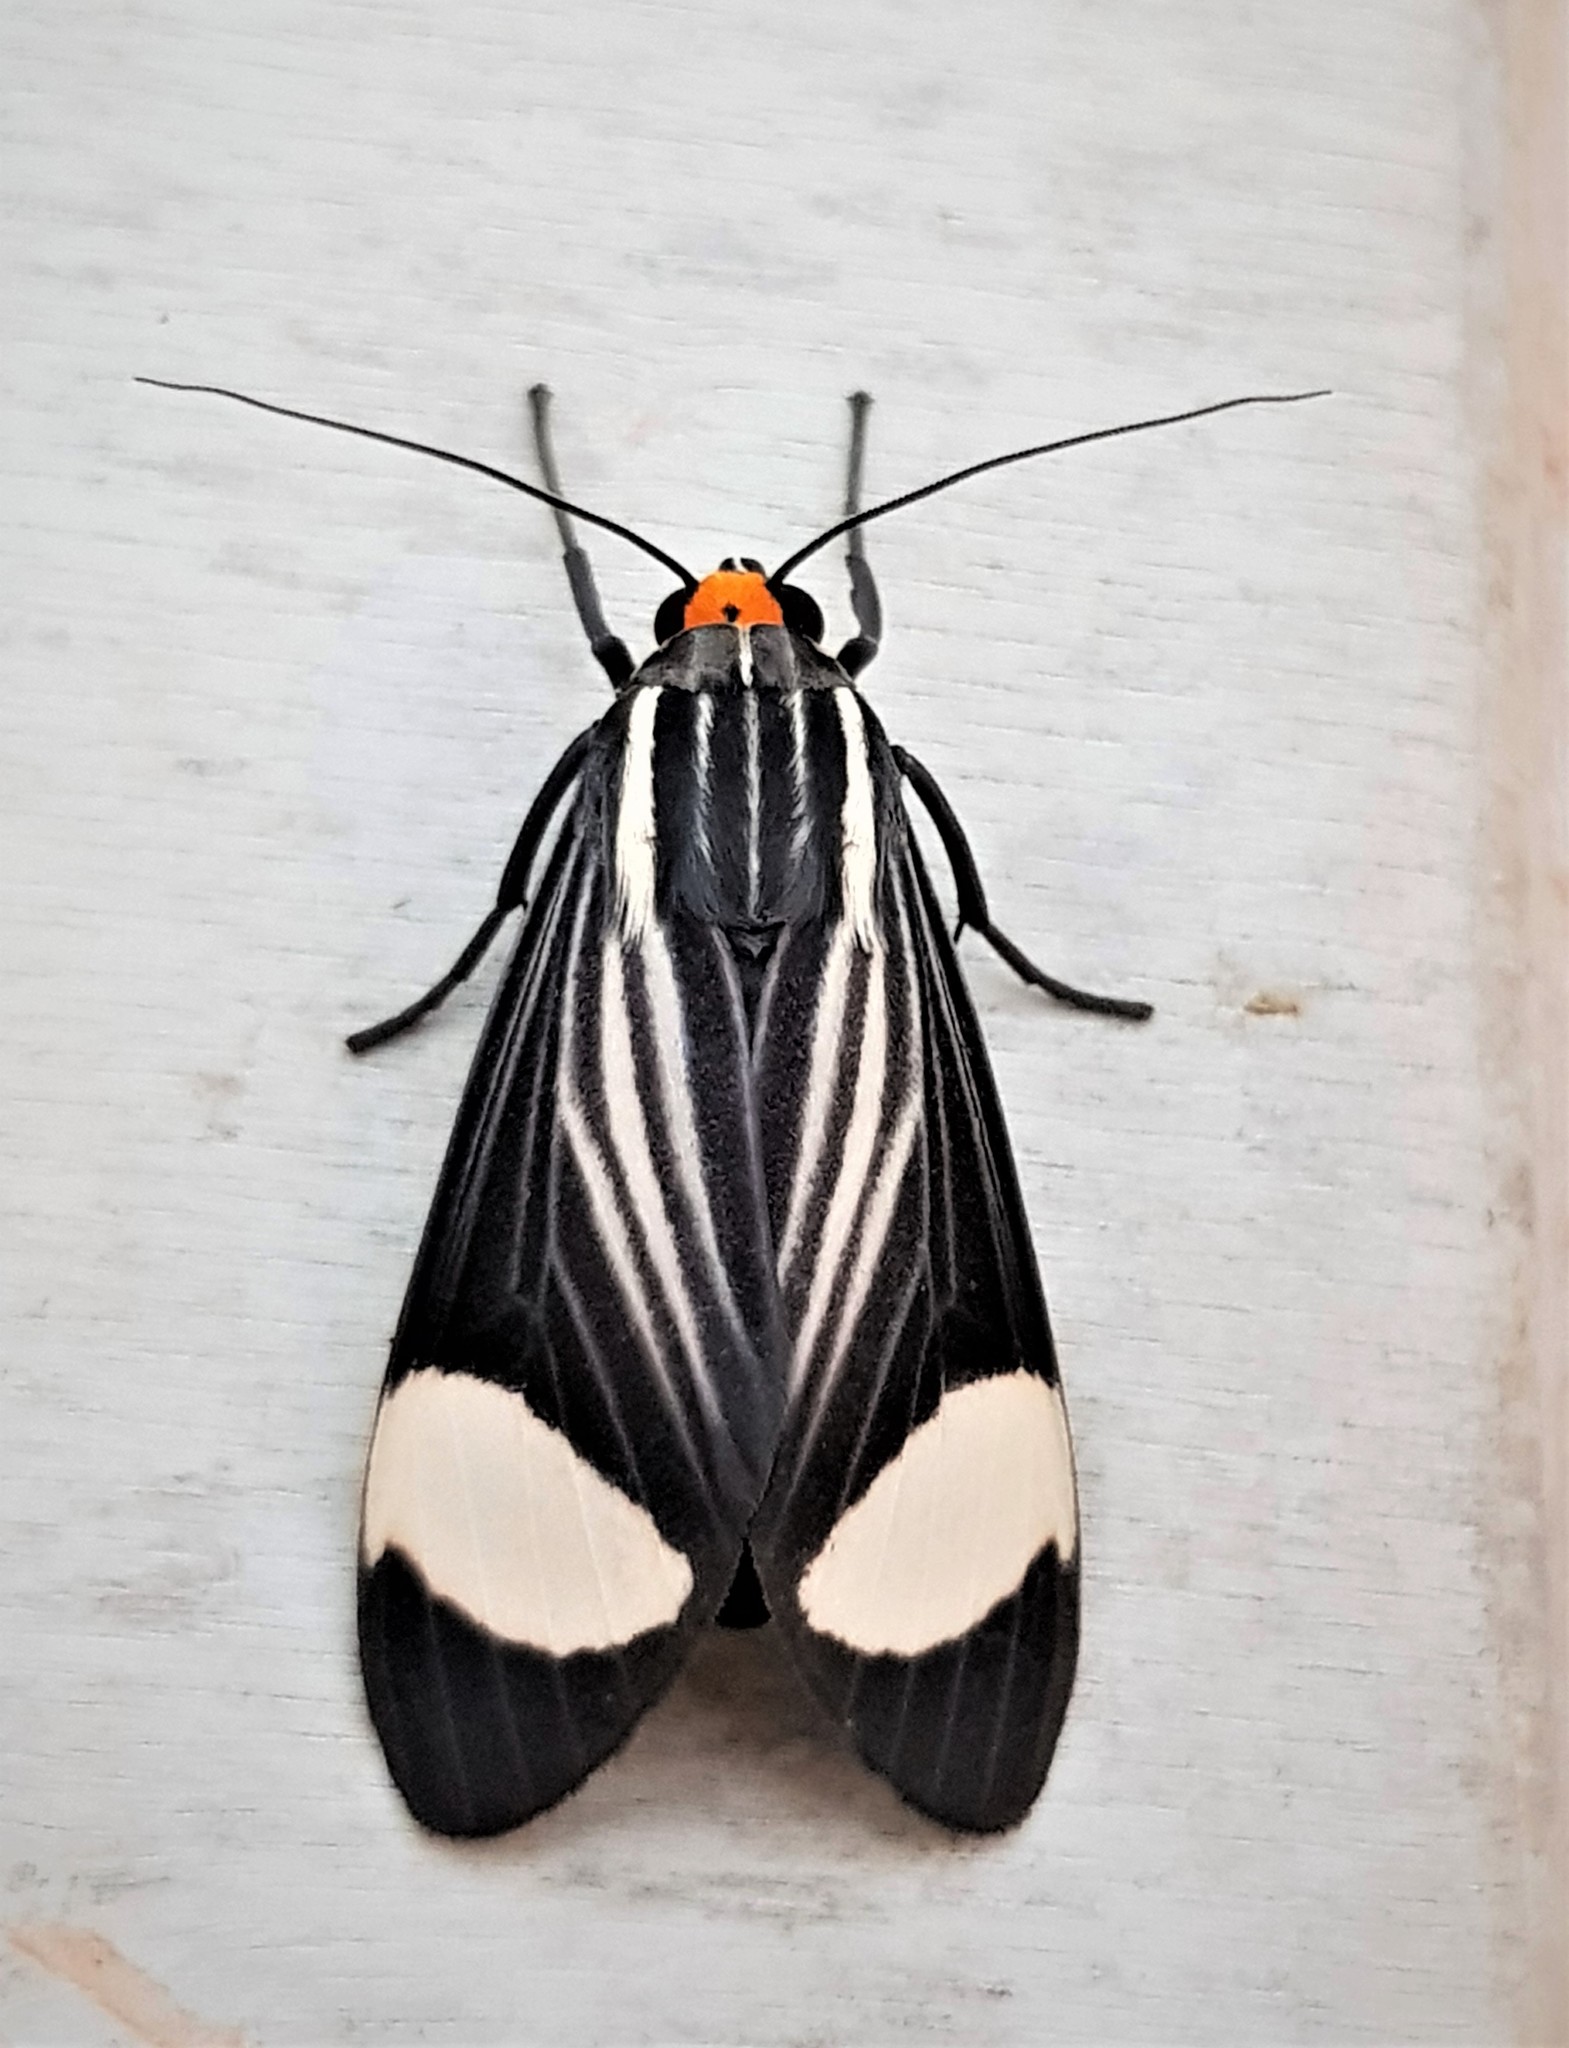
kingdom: Animalia
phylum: Arthropoda
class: Insecta
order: Lepidoptera
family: Erebidae
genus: Rhipha
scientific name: Rhipha leucoplaga
